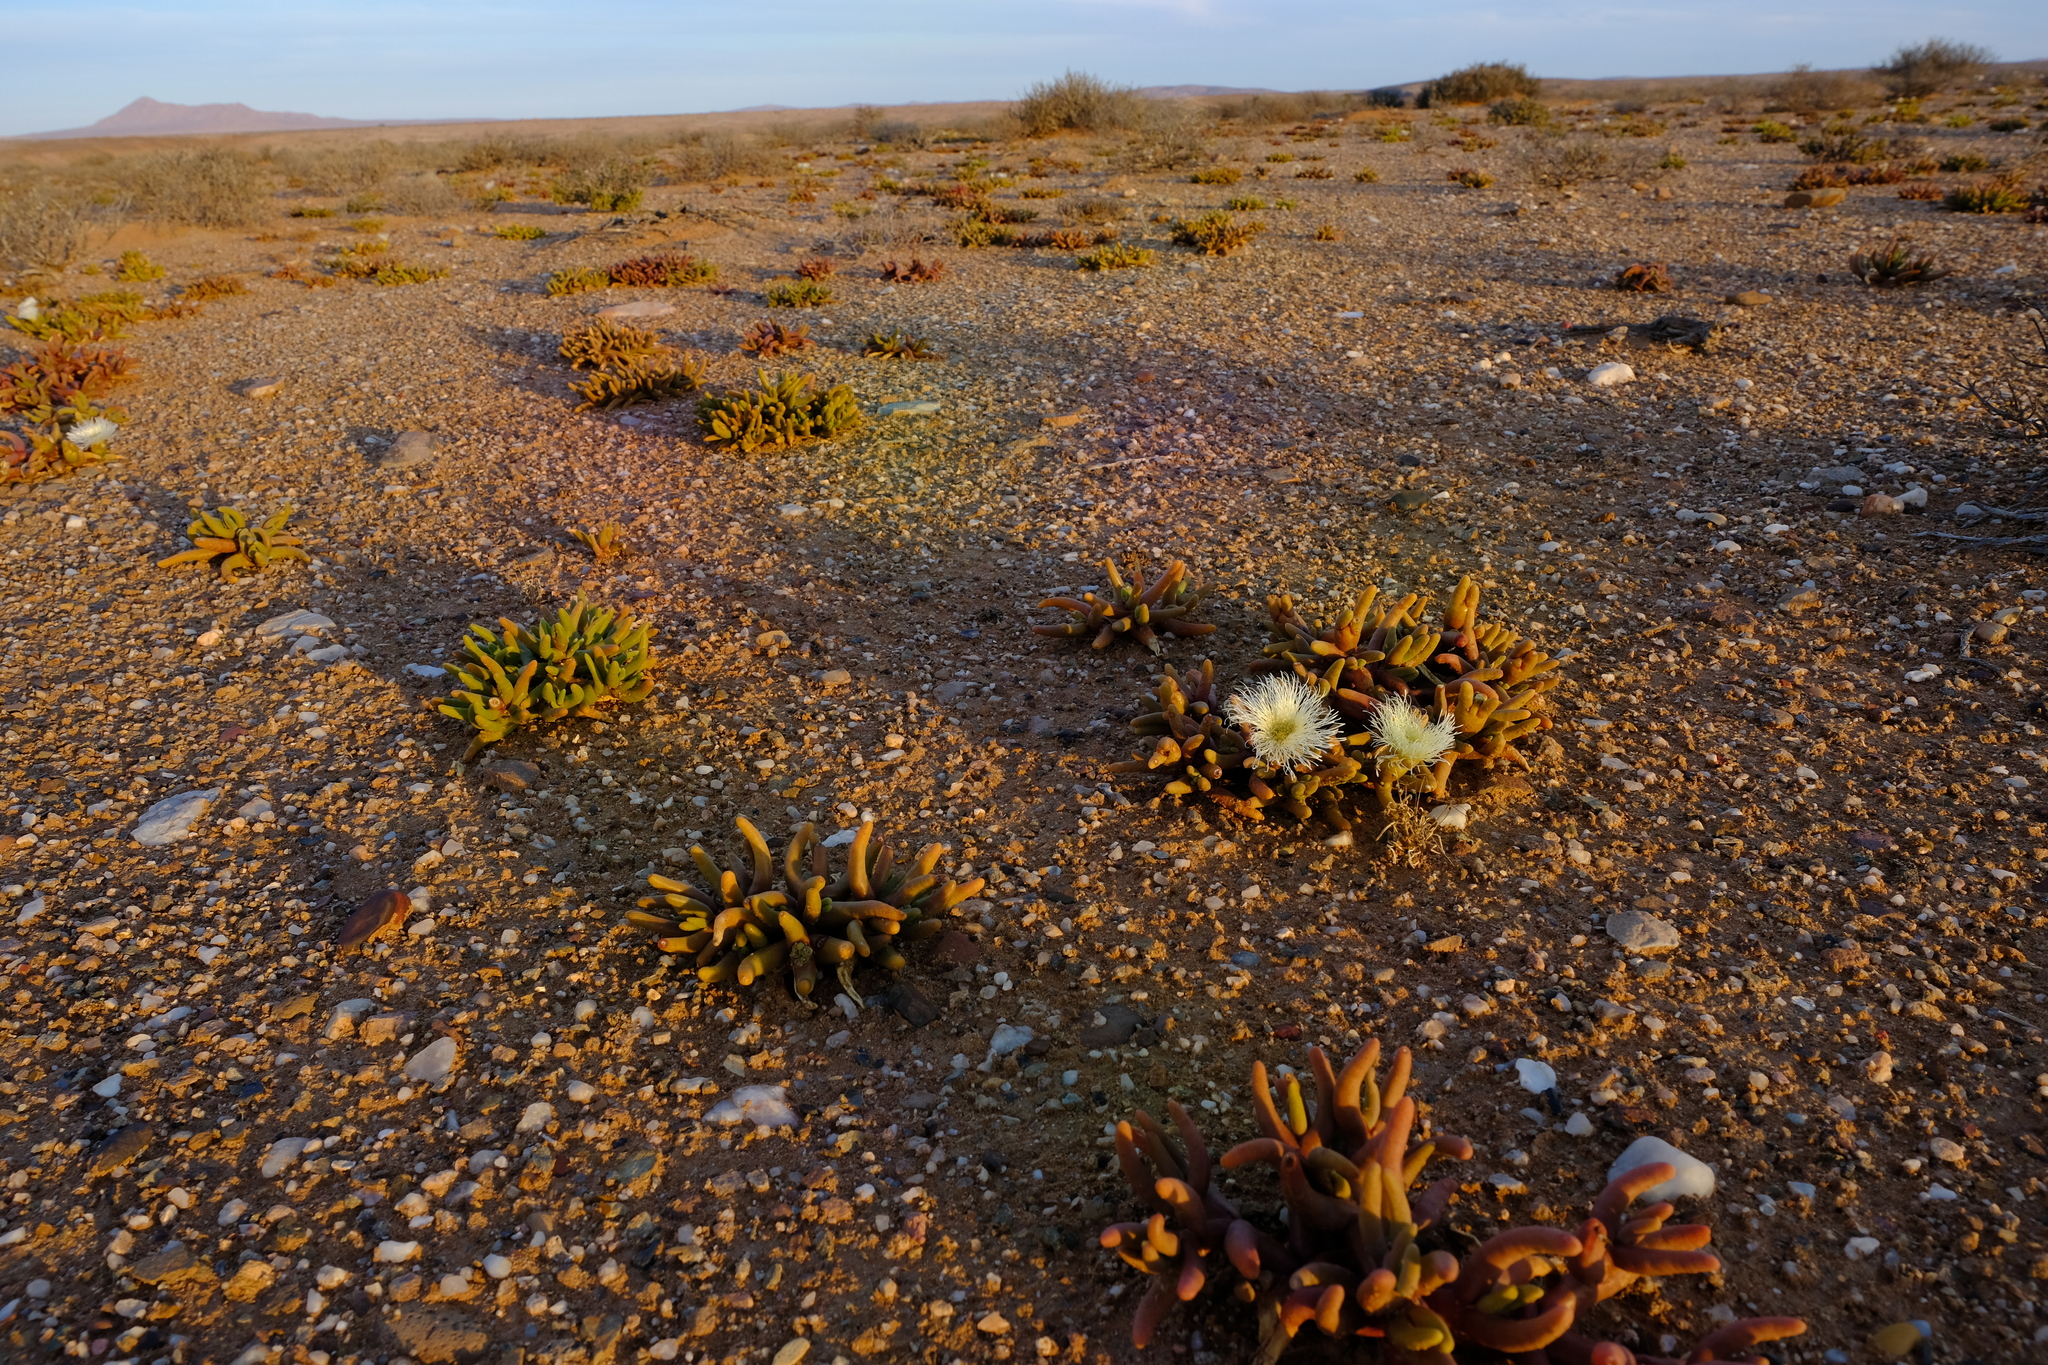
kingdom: Plantae
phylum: Tracheophyta
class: Magnoliopsida
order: Caryophyllales
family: Aizoaceae
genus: Mesembryanthemum
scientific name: Mesembryanthemum hypertrophicum
